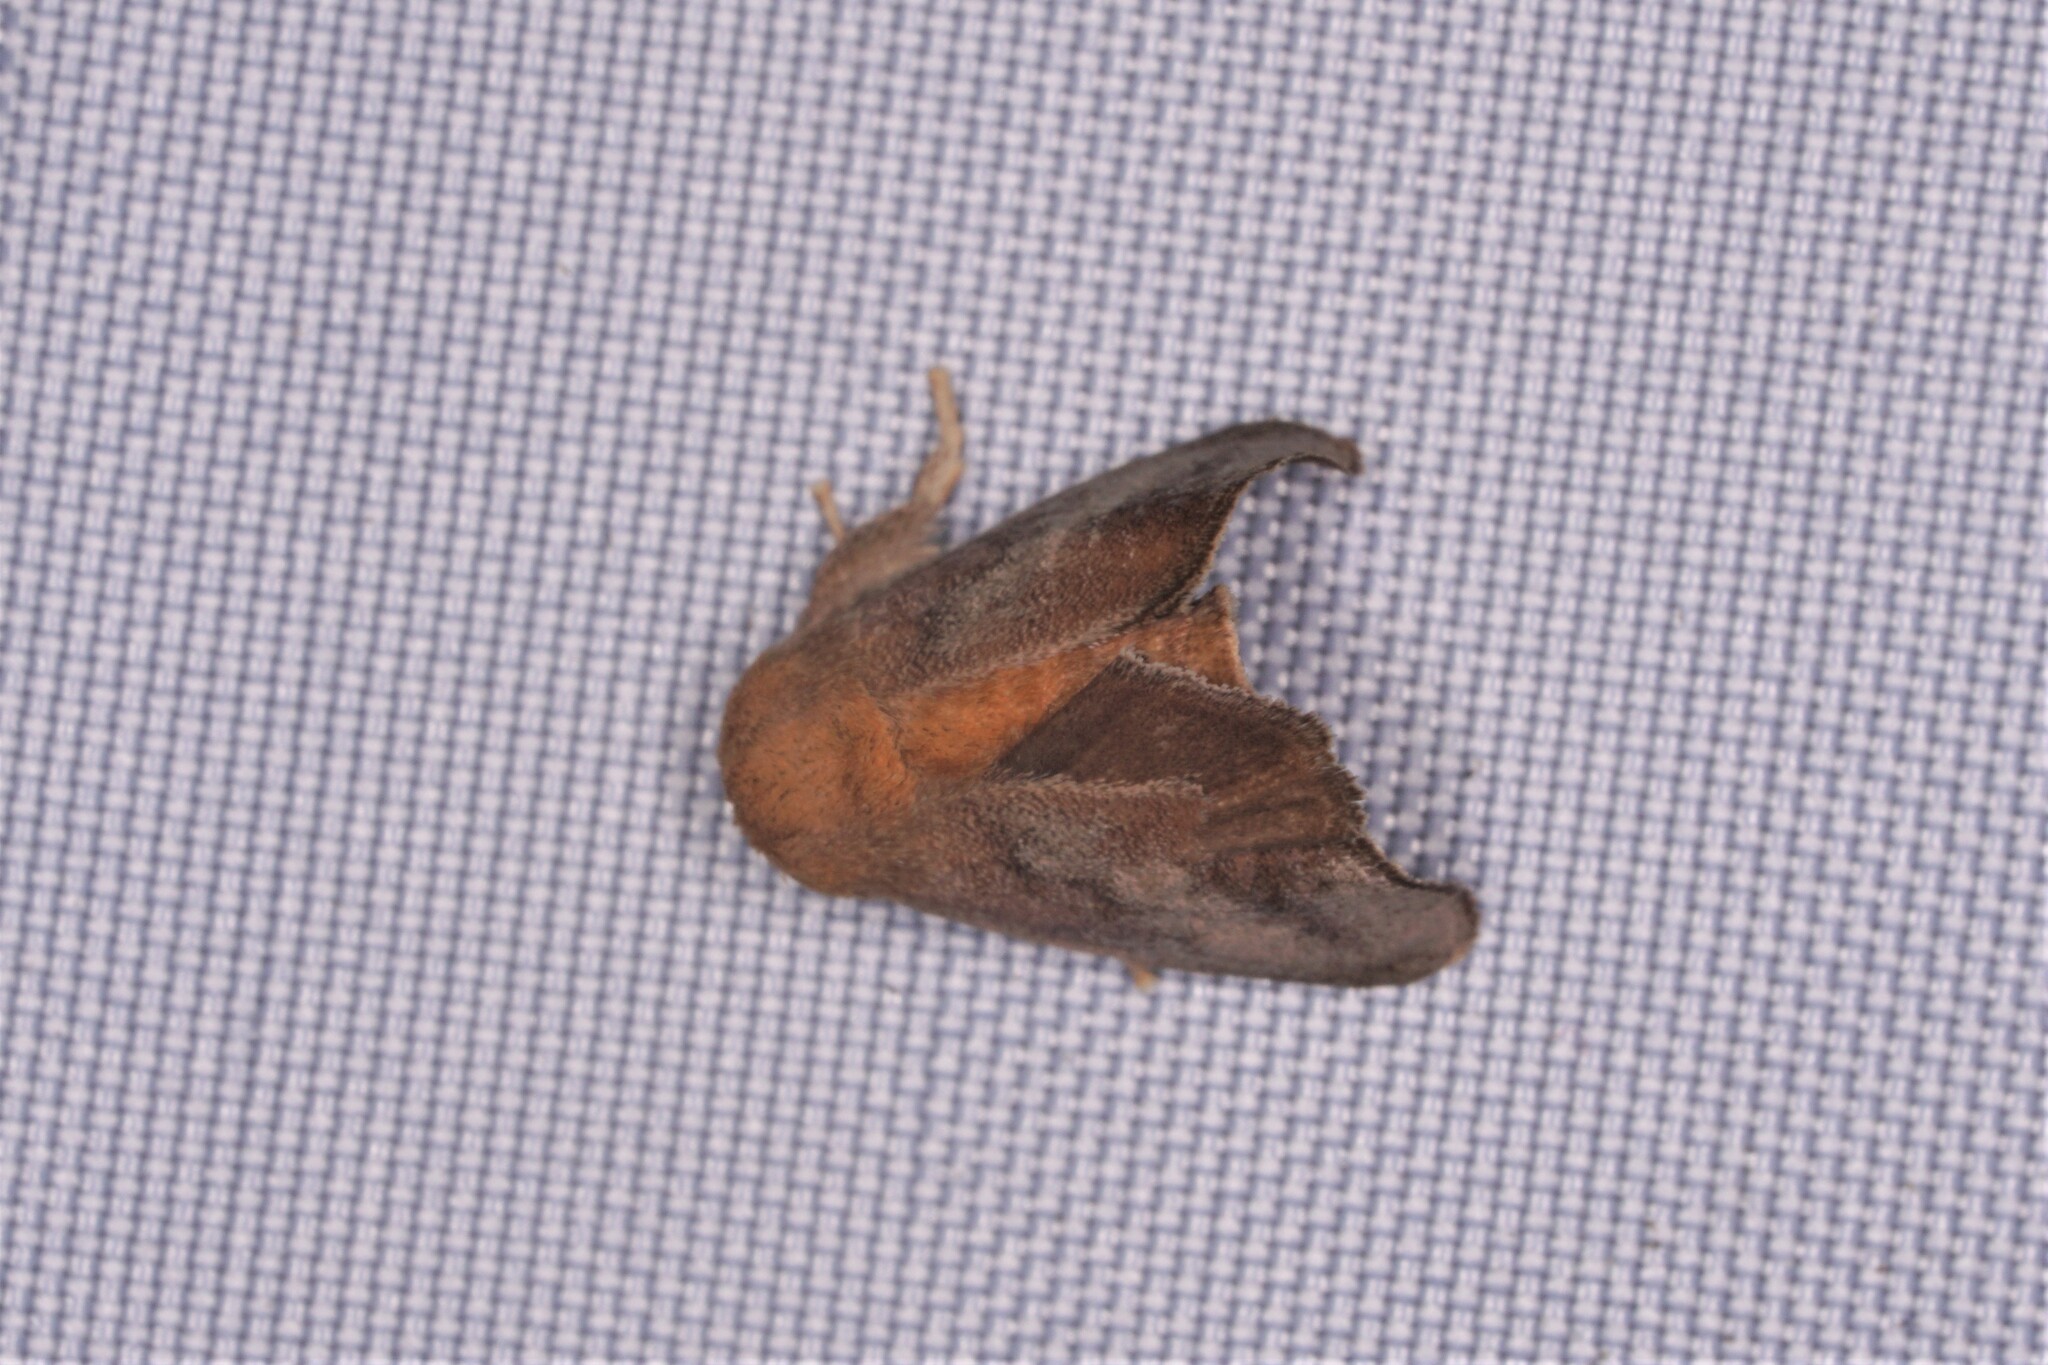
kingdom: Animalia
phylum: Arthropoda
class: Insecta
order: Lepidoptera
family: Limacodidae
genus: Isa
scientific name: Isa textula
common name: Crowned slug moth
